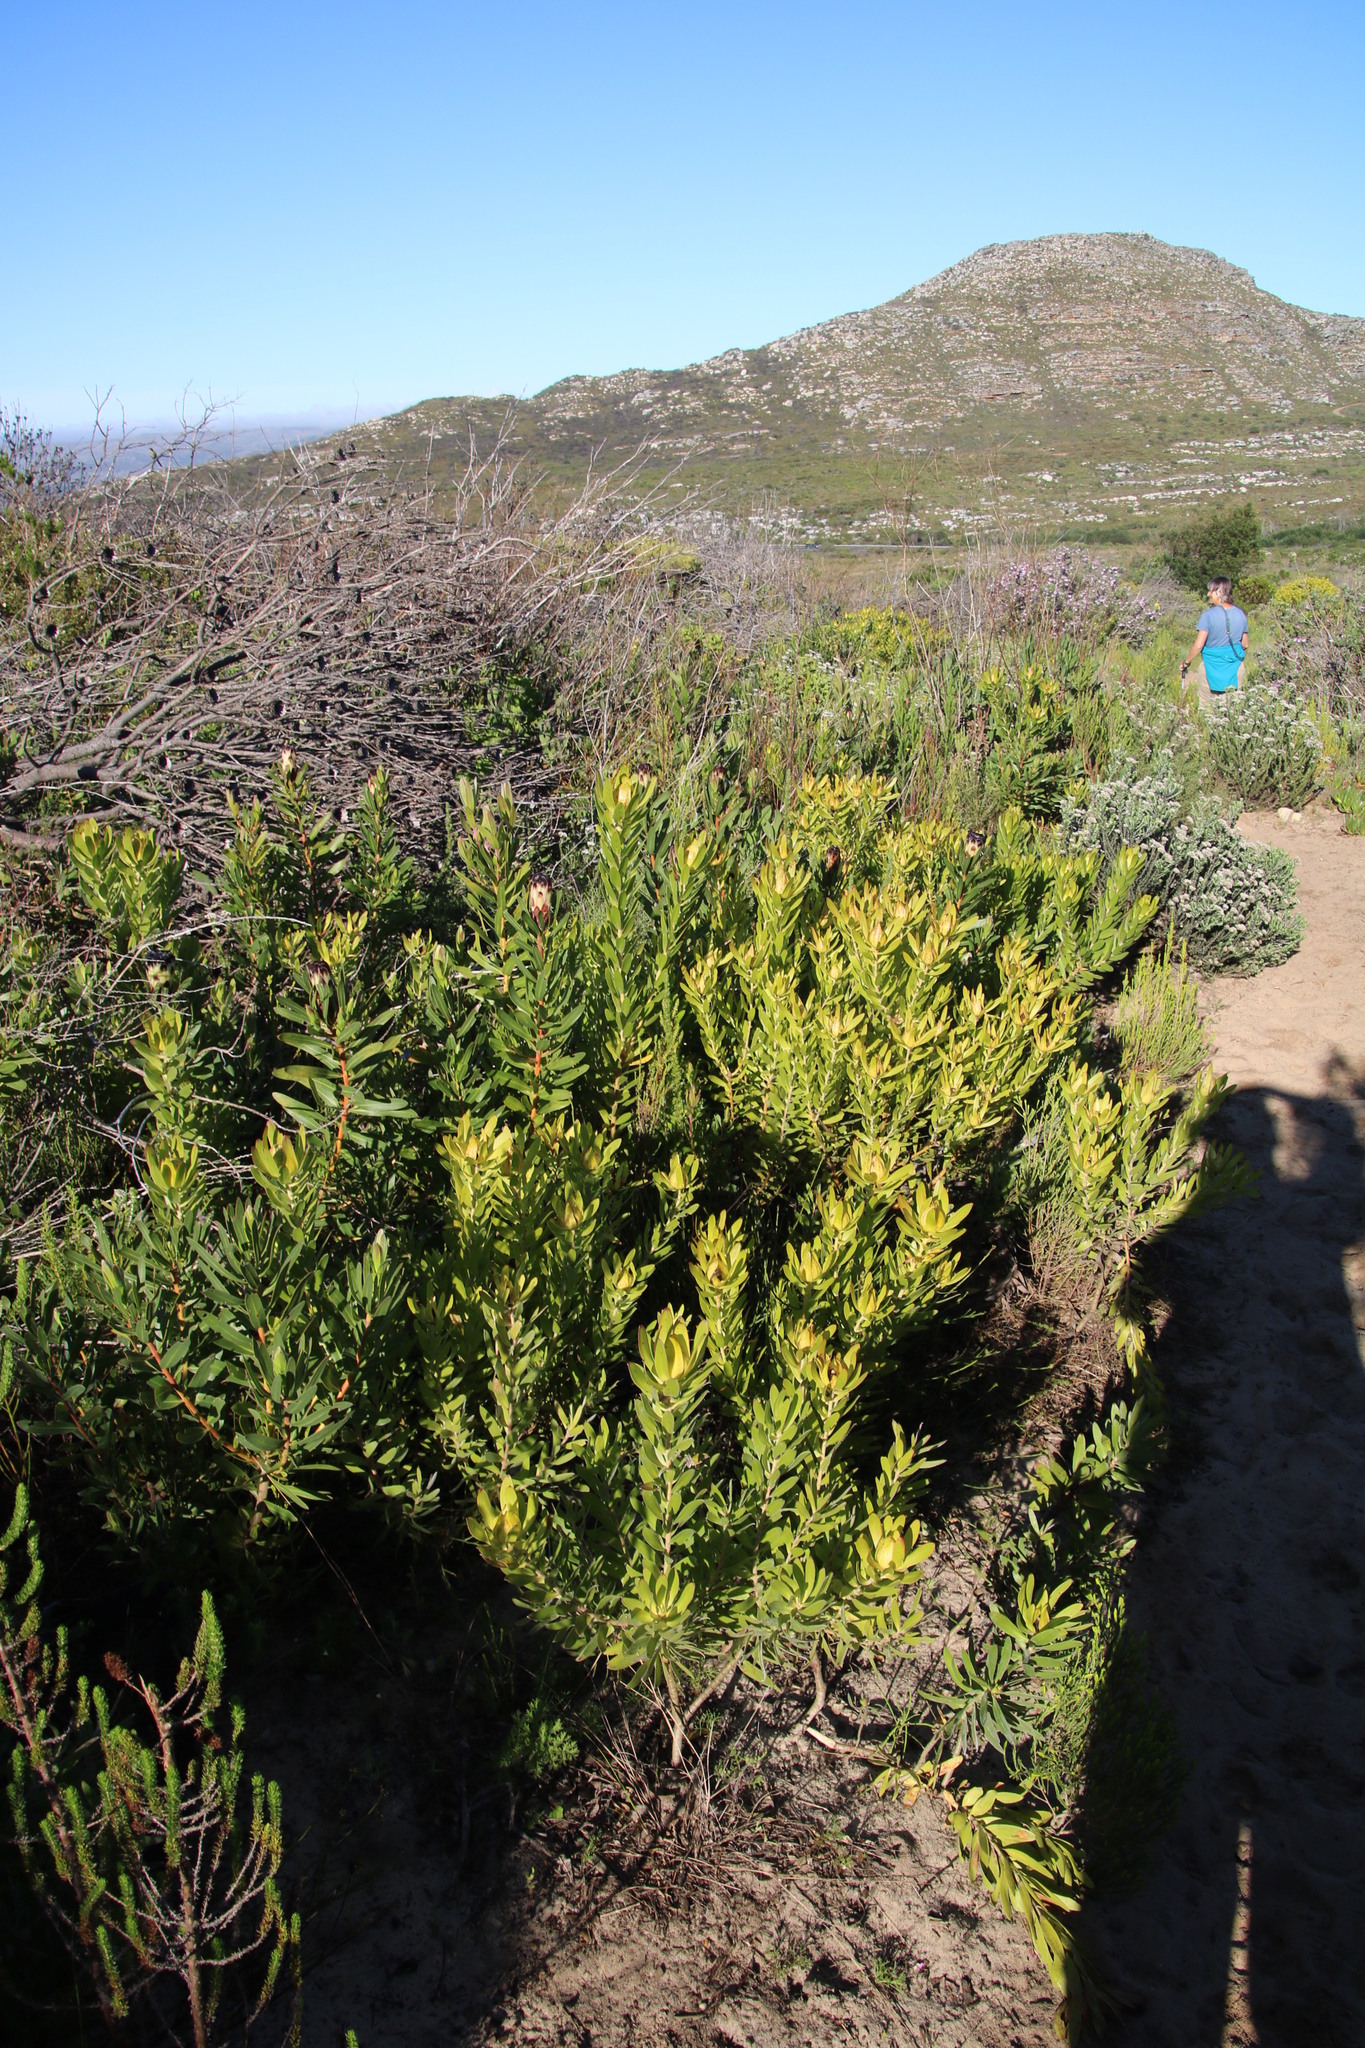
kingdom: Plantae
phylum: Tracheophyta
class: Magnoliopsida
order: Proteales
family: Proteaceae
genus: Leucadendron
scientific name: Leucadendron laureolum
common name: Golden sunshinebush
